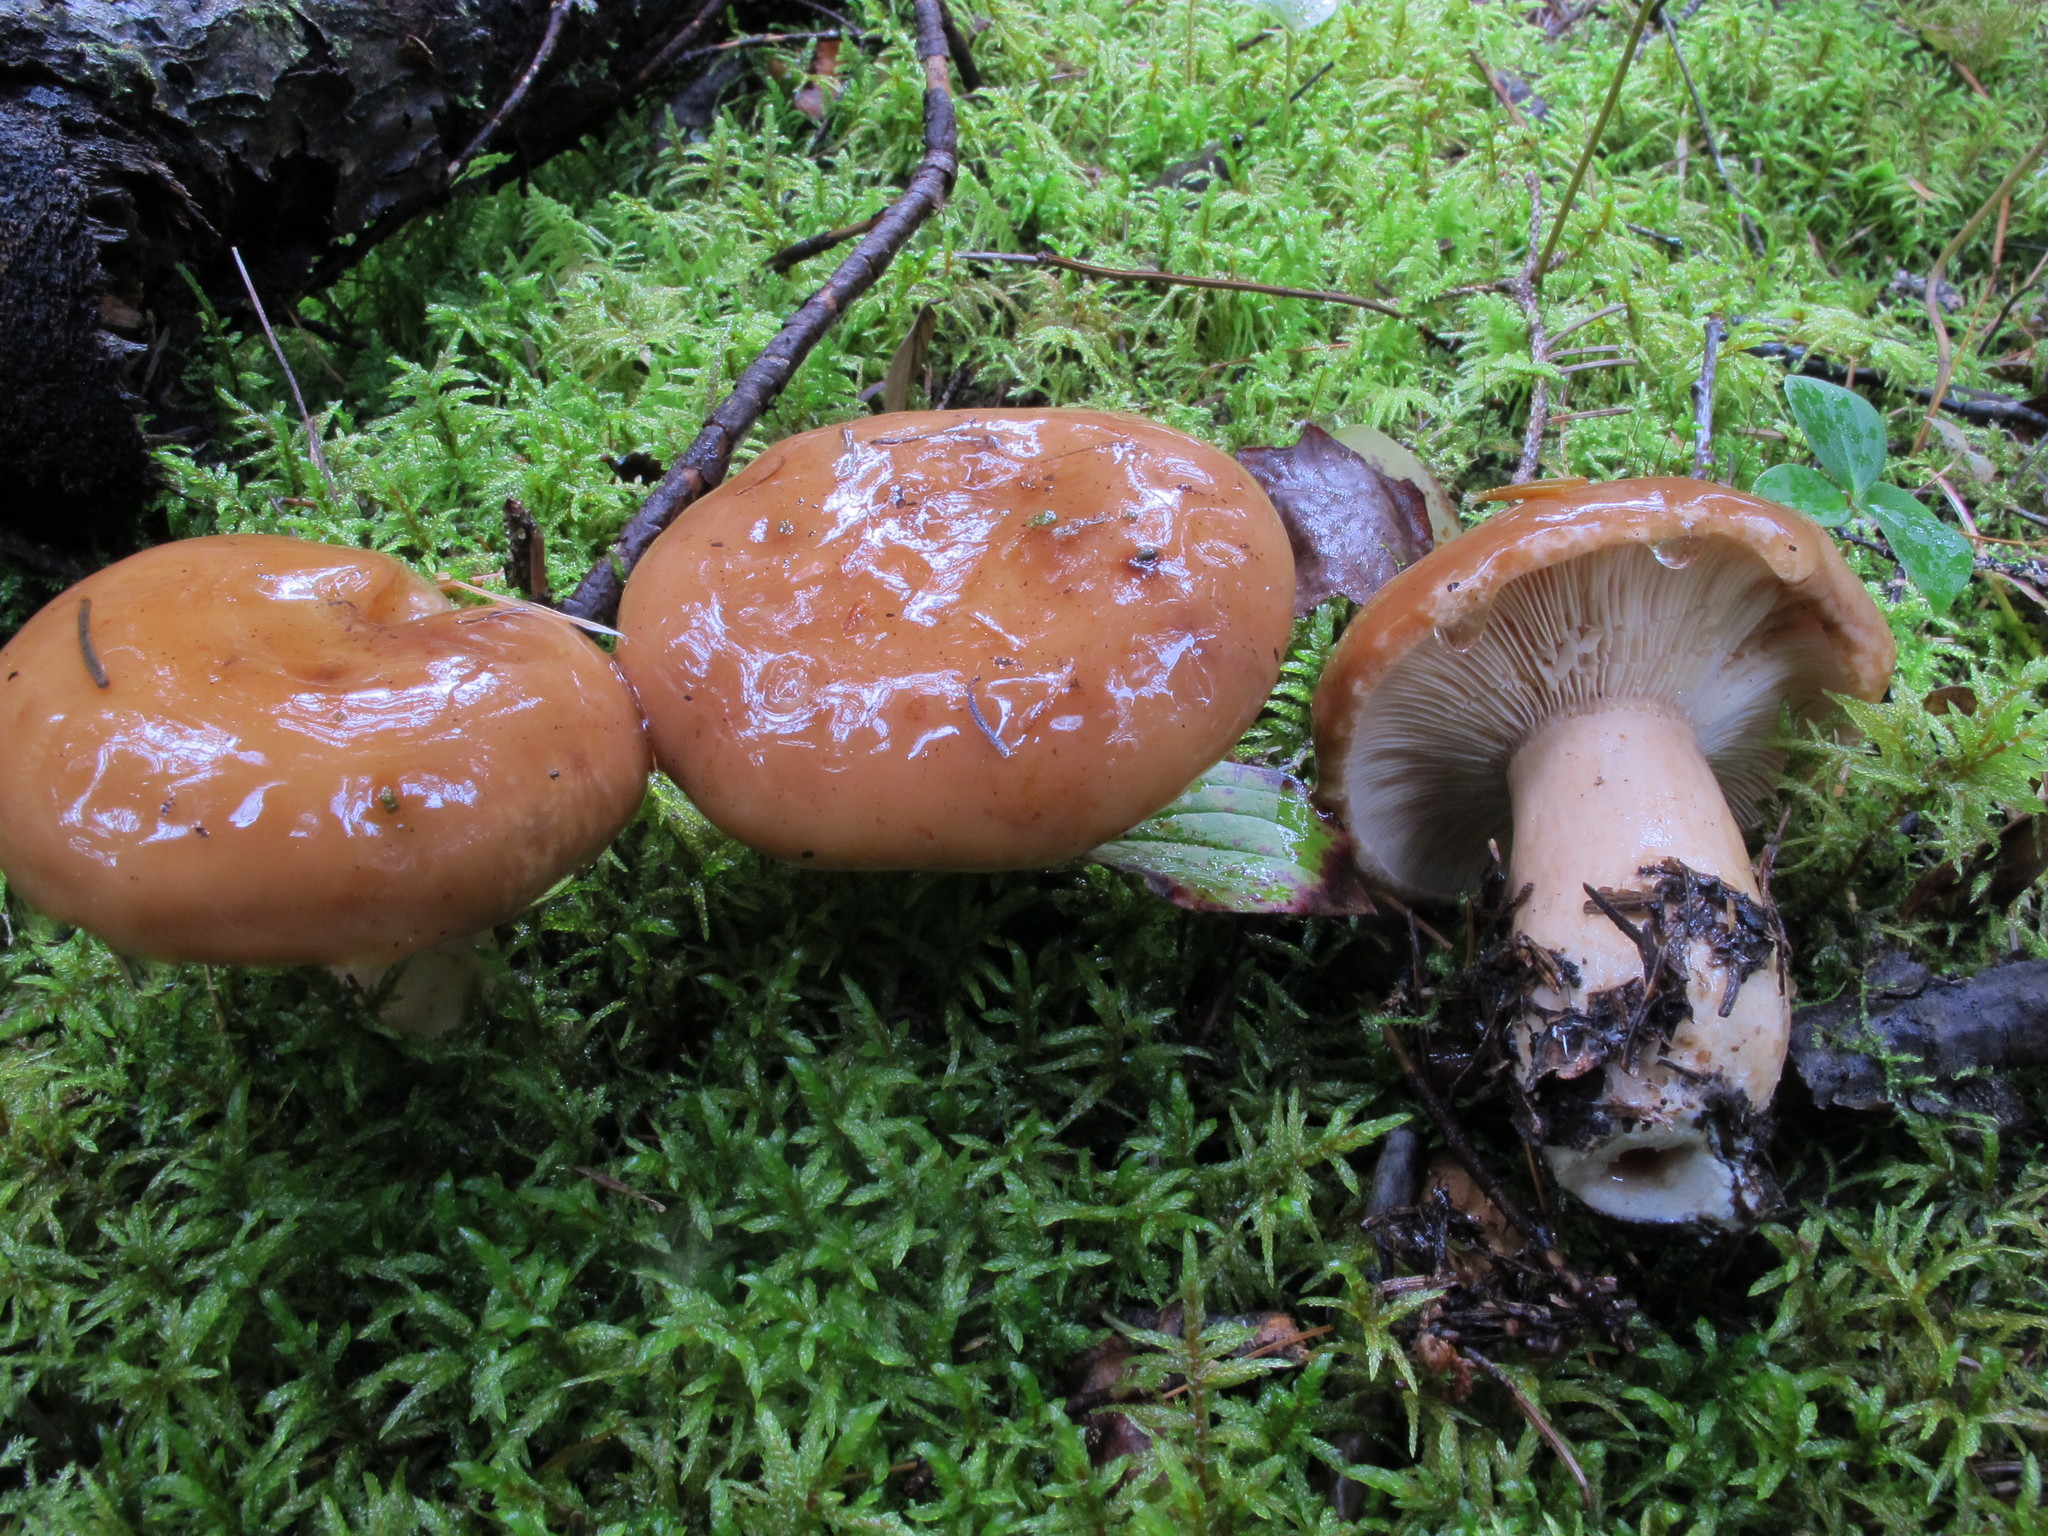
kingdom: Fungi
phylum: Basidiomycota
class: Agaricomycetes
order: Russulales
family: Russulaceae
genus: Lactarius
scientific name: Lactarius affinis
